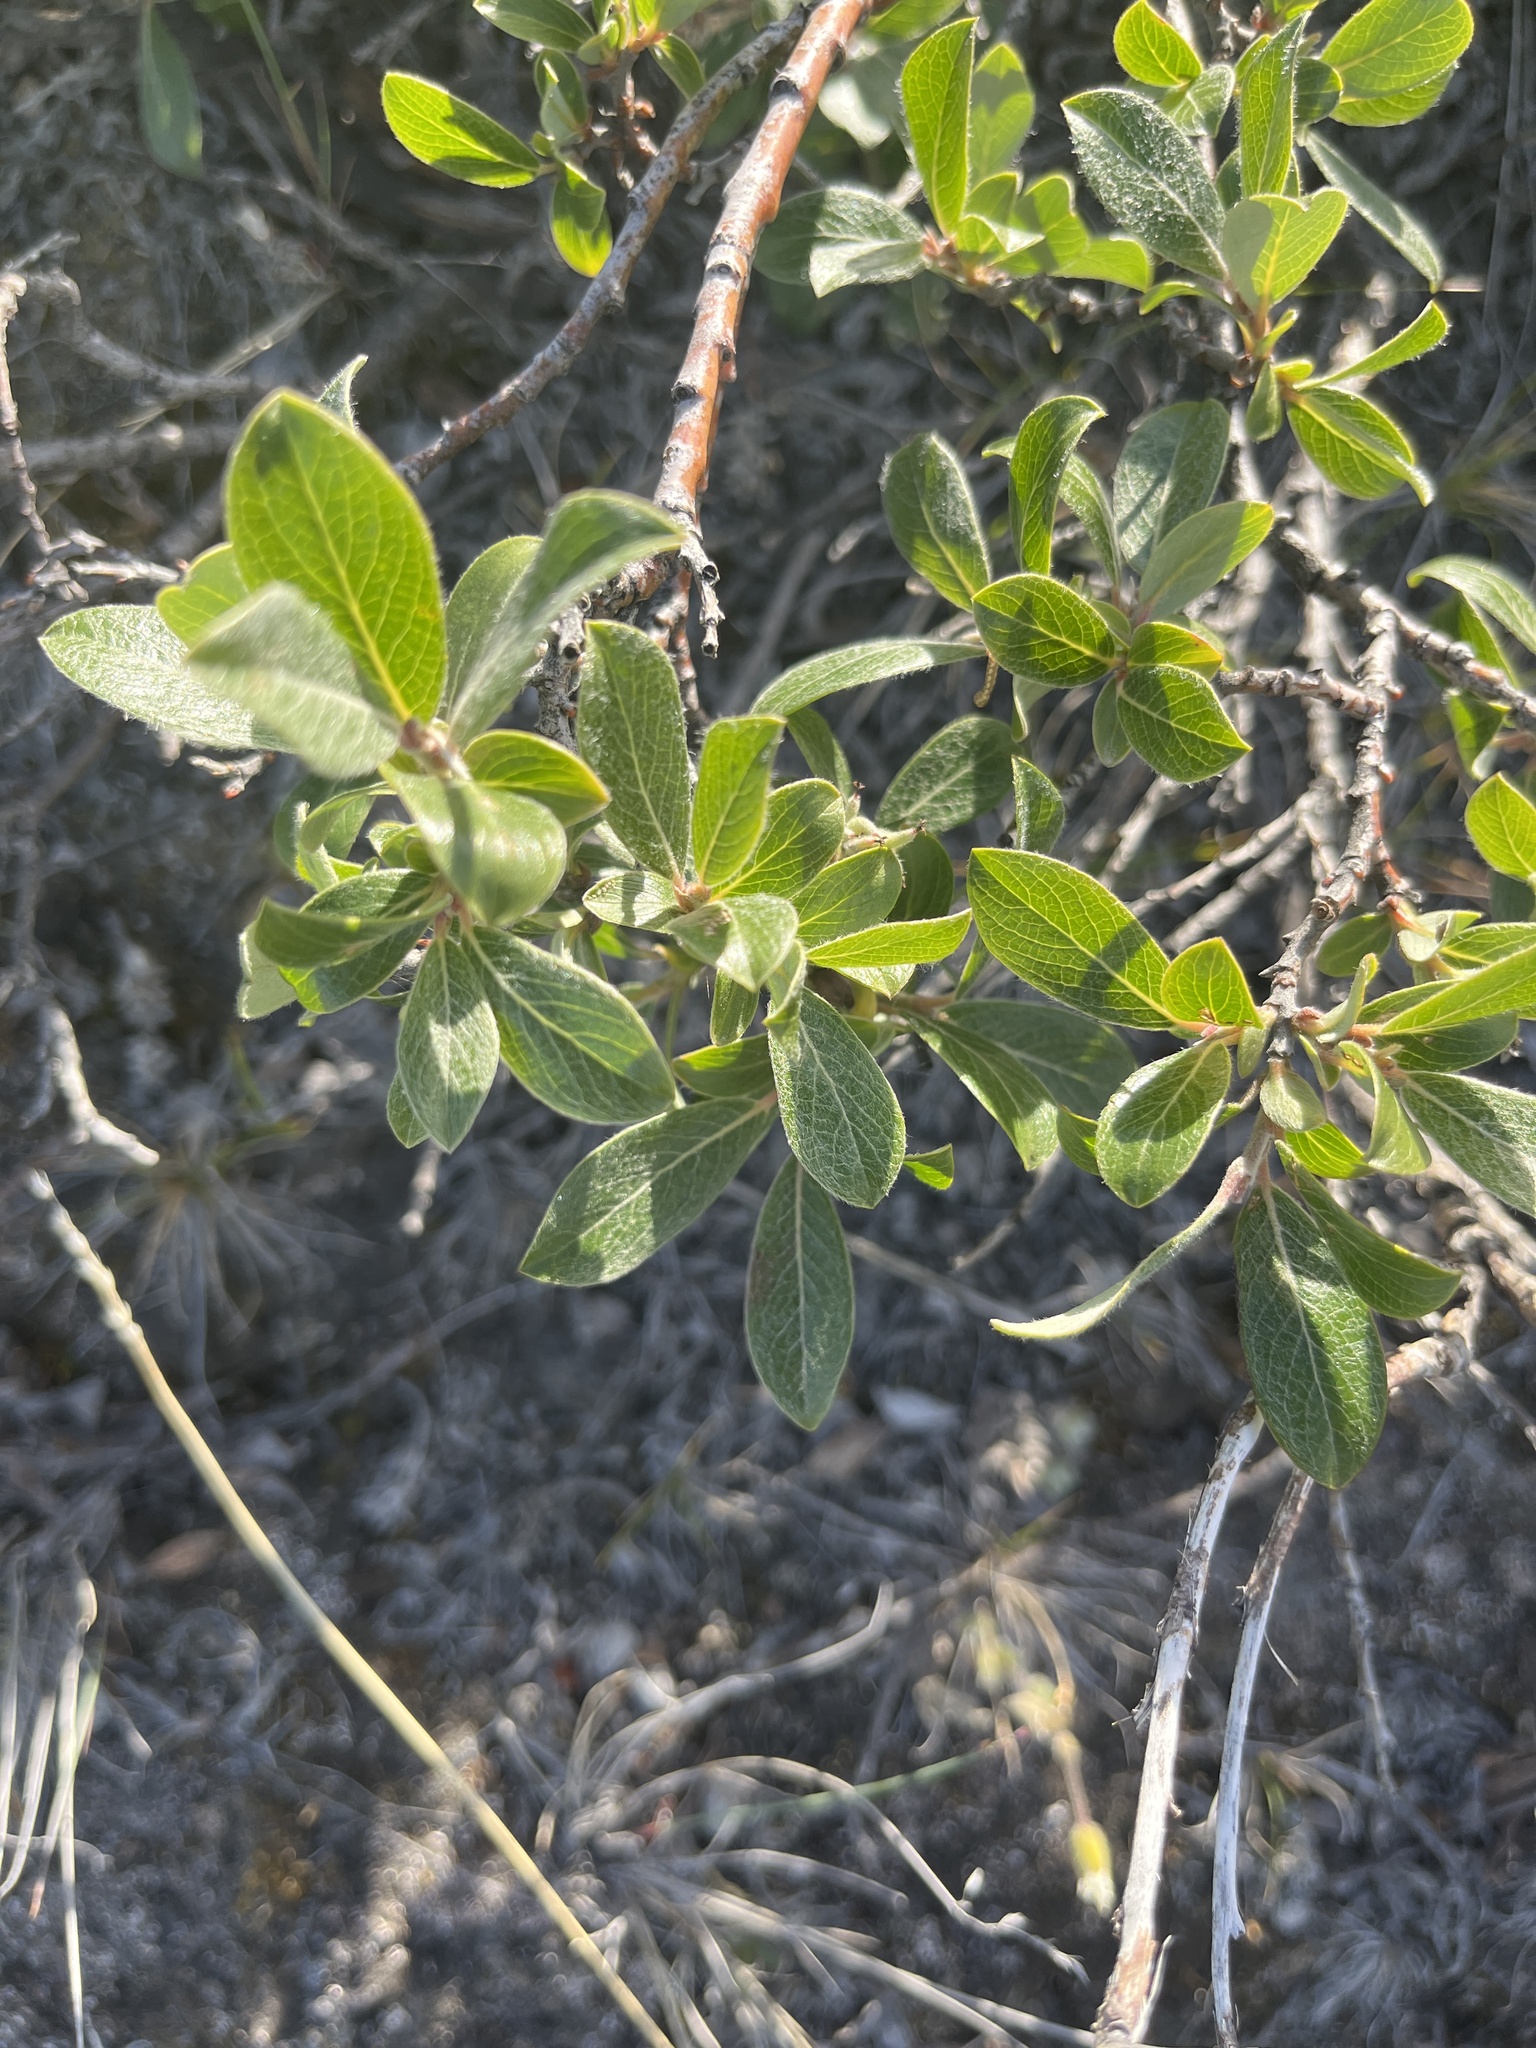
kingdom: Plantae
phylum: Tracheophyta
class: Magnoliopsida
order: Malpighiales
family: Salicaceae
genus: Salix
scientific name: Salix glauca
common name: Glaucous willow
